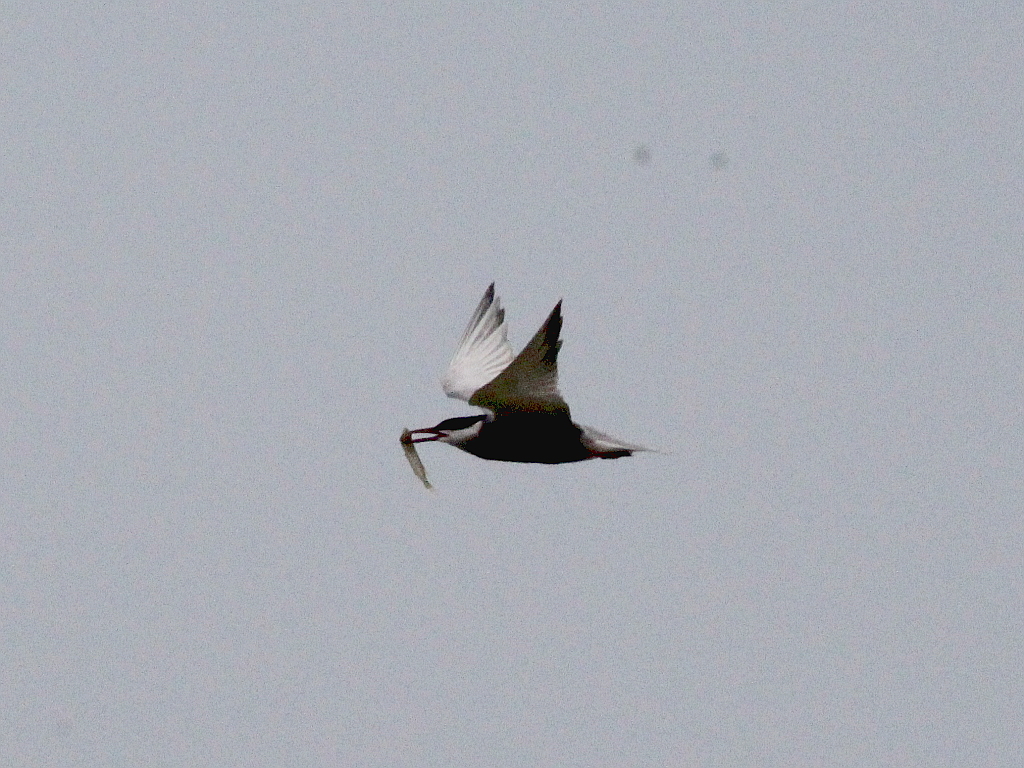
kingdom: Animalia
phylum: Chordata
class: Aves
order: Charadriiformes
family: Laridae
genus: Chlidonias
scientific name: Chlidonias hybrida
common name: Whiskered tern
